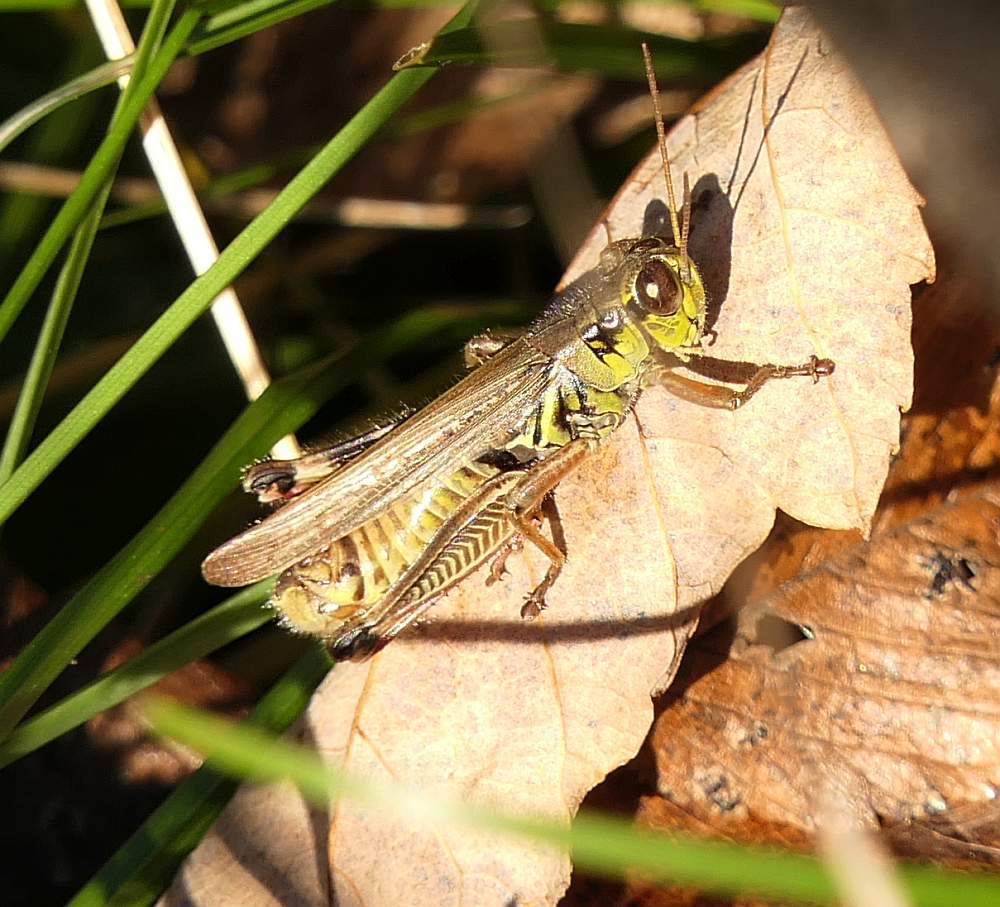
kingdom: Animalia
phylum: Arthropoda
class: Insecta
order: Orthoptera
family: Acrididae
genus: Melanoplus
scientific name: Melanoplus femurrubrum
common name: Red-legged grasshopper
